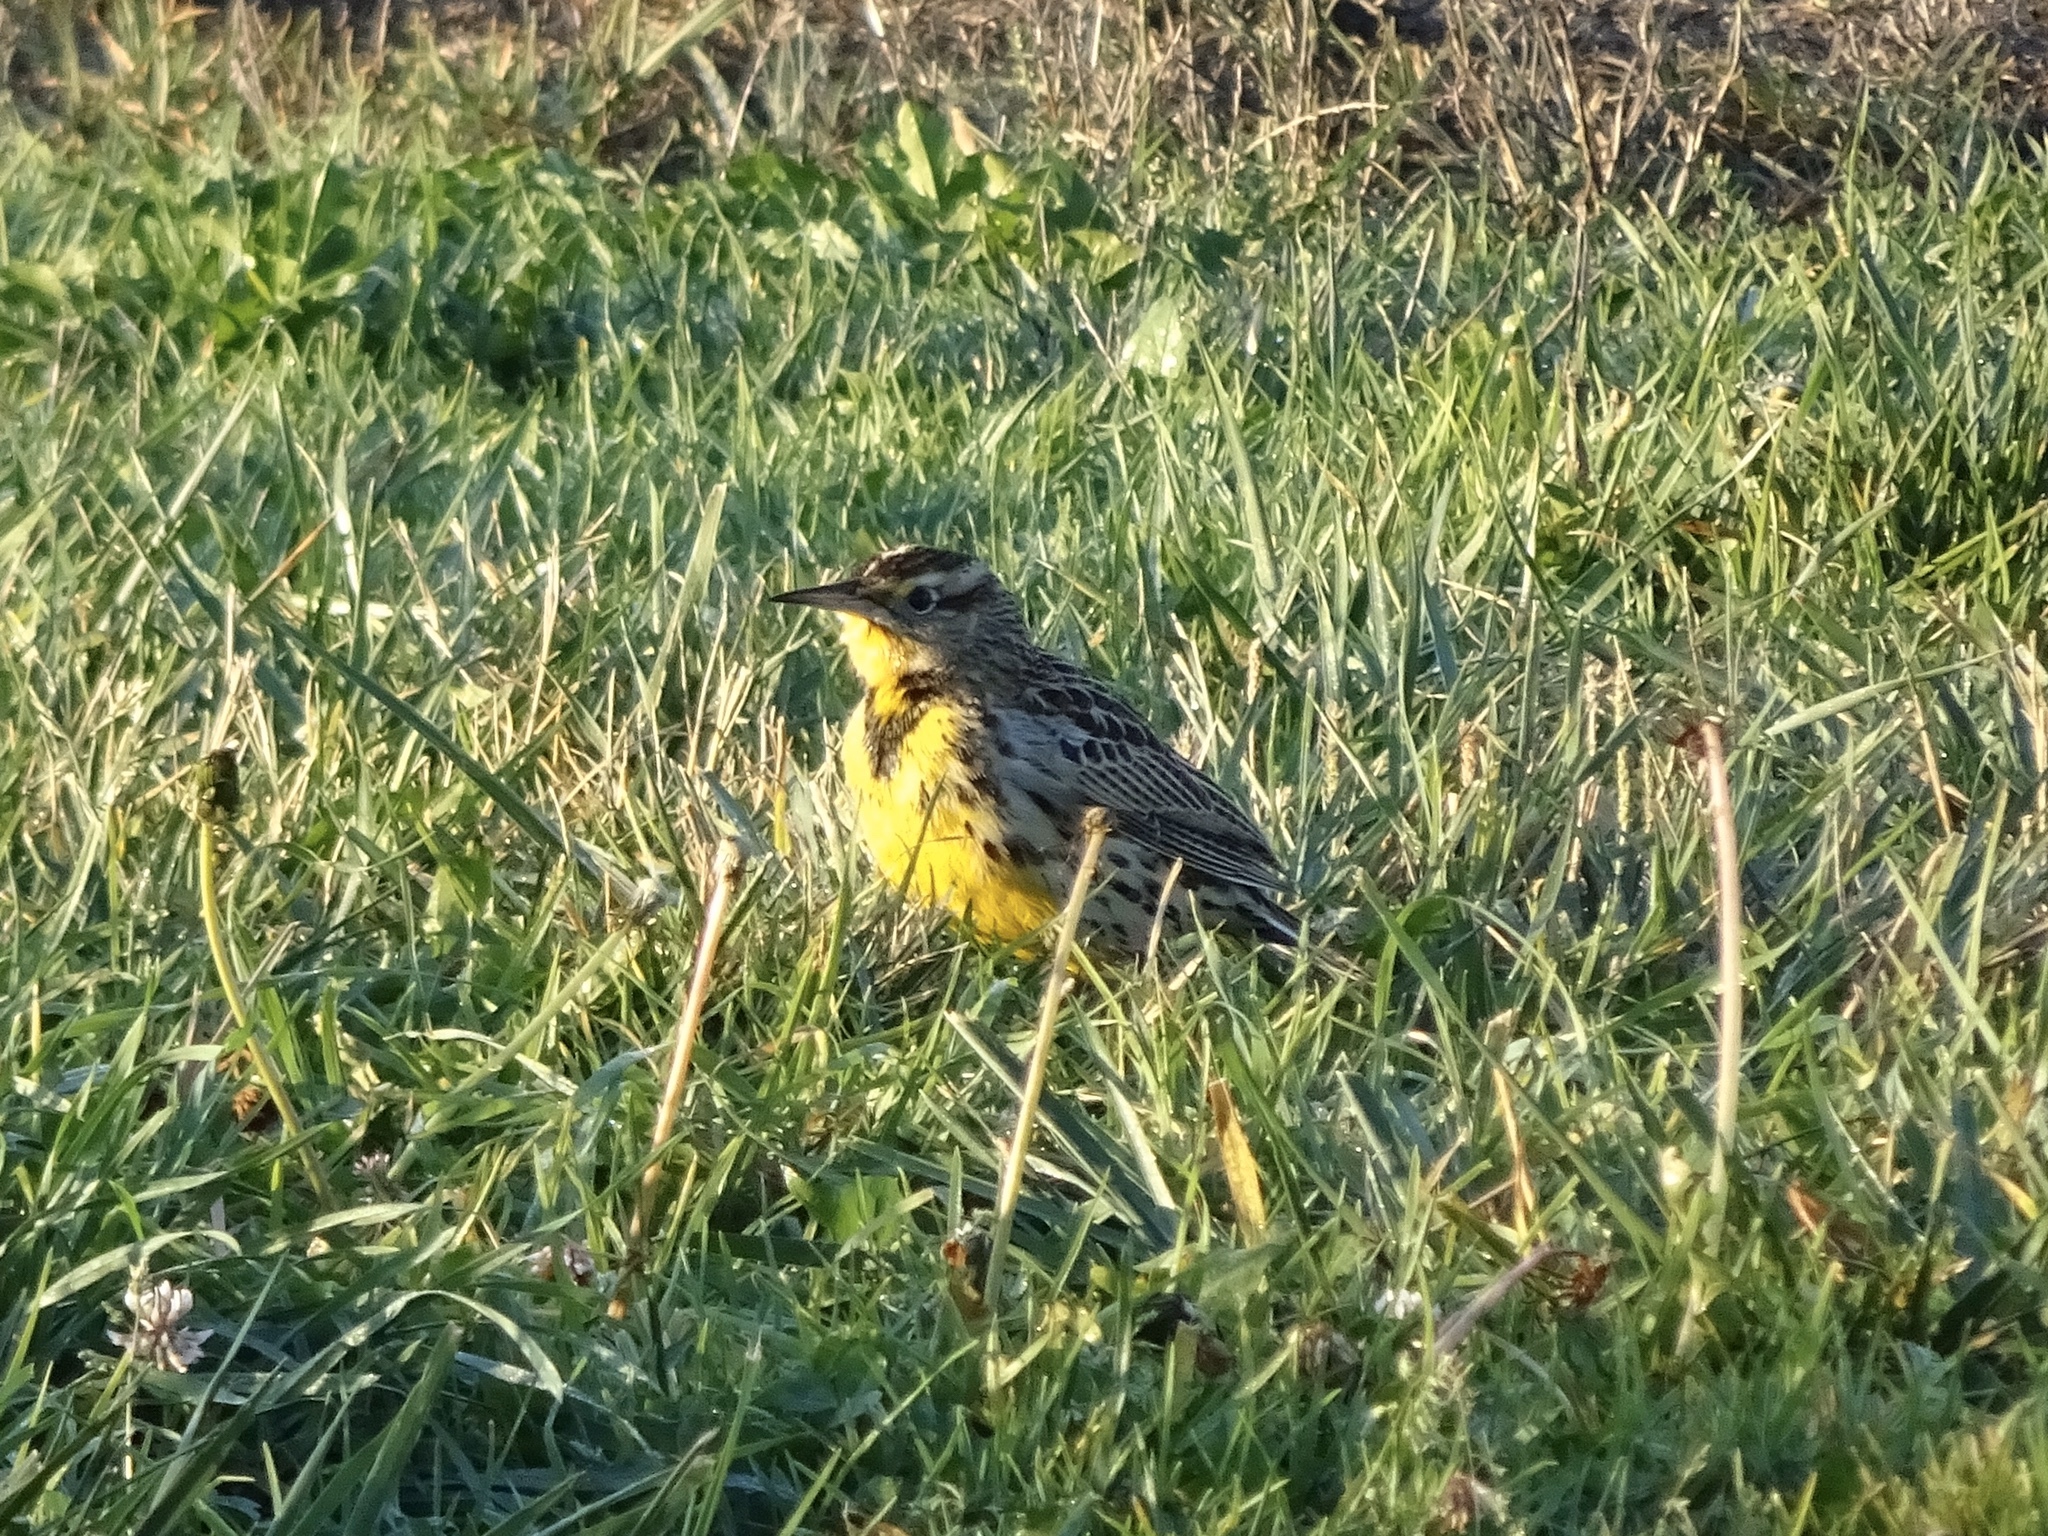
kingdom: Animalia
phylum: Chordata
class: Aves
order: Passeriformes
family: Icteridae
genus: Sturnella
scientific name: Sturnella neglecta
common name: Western meadowlark
